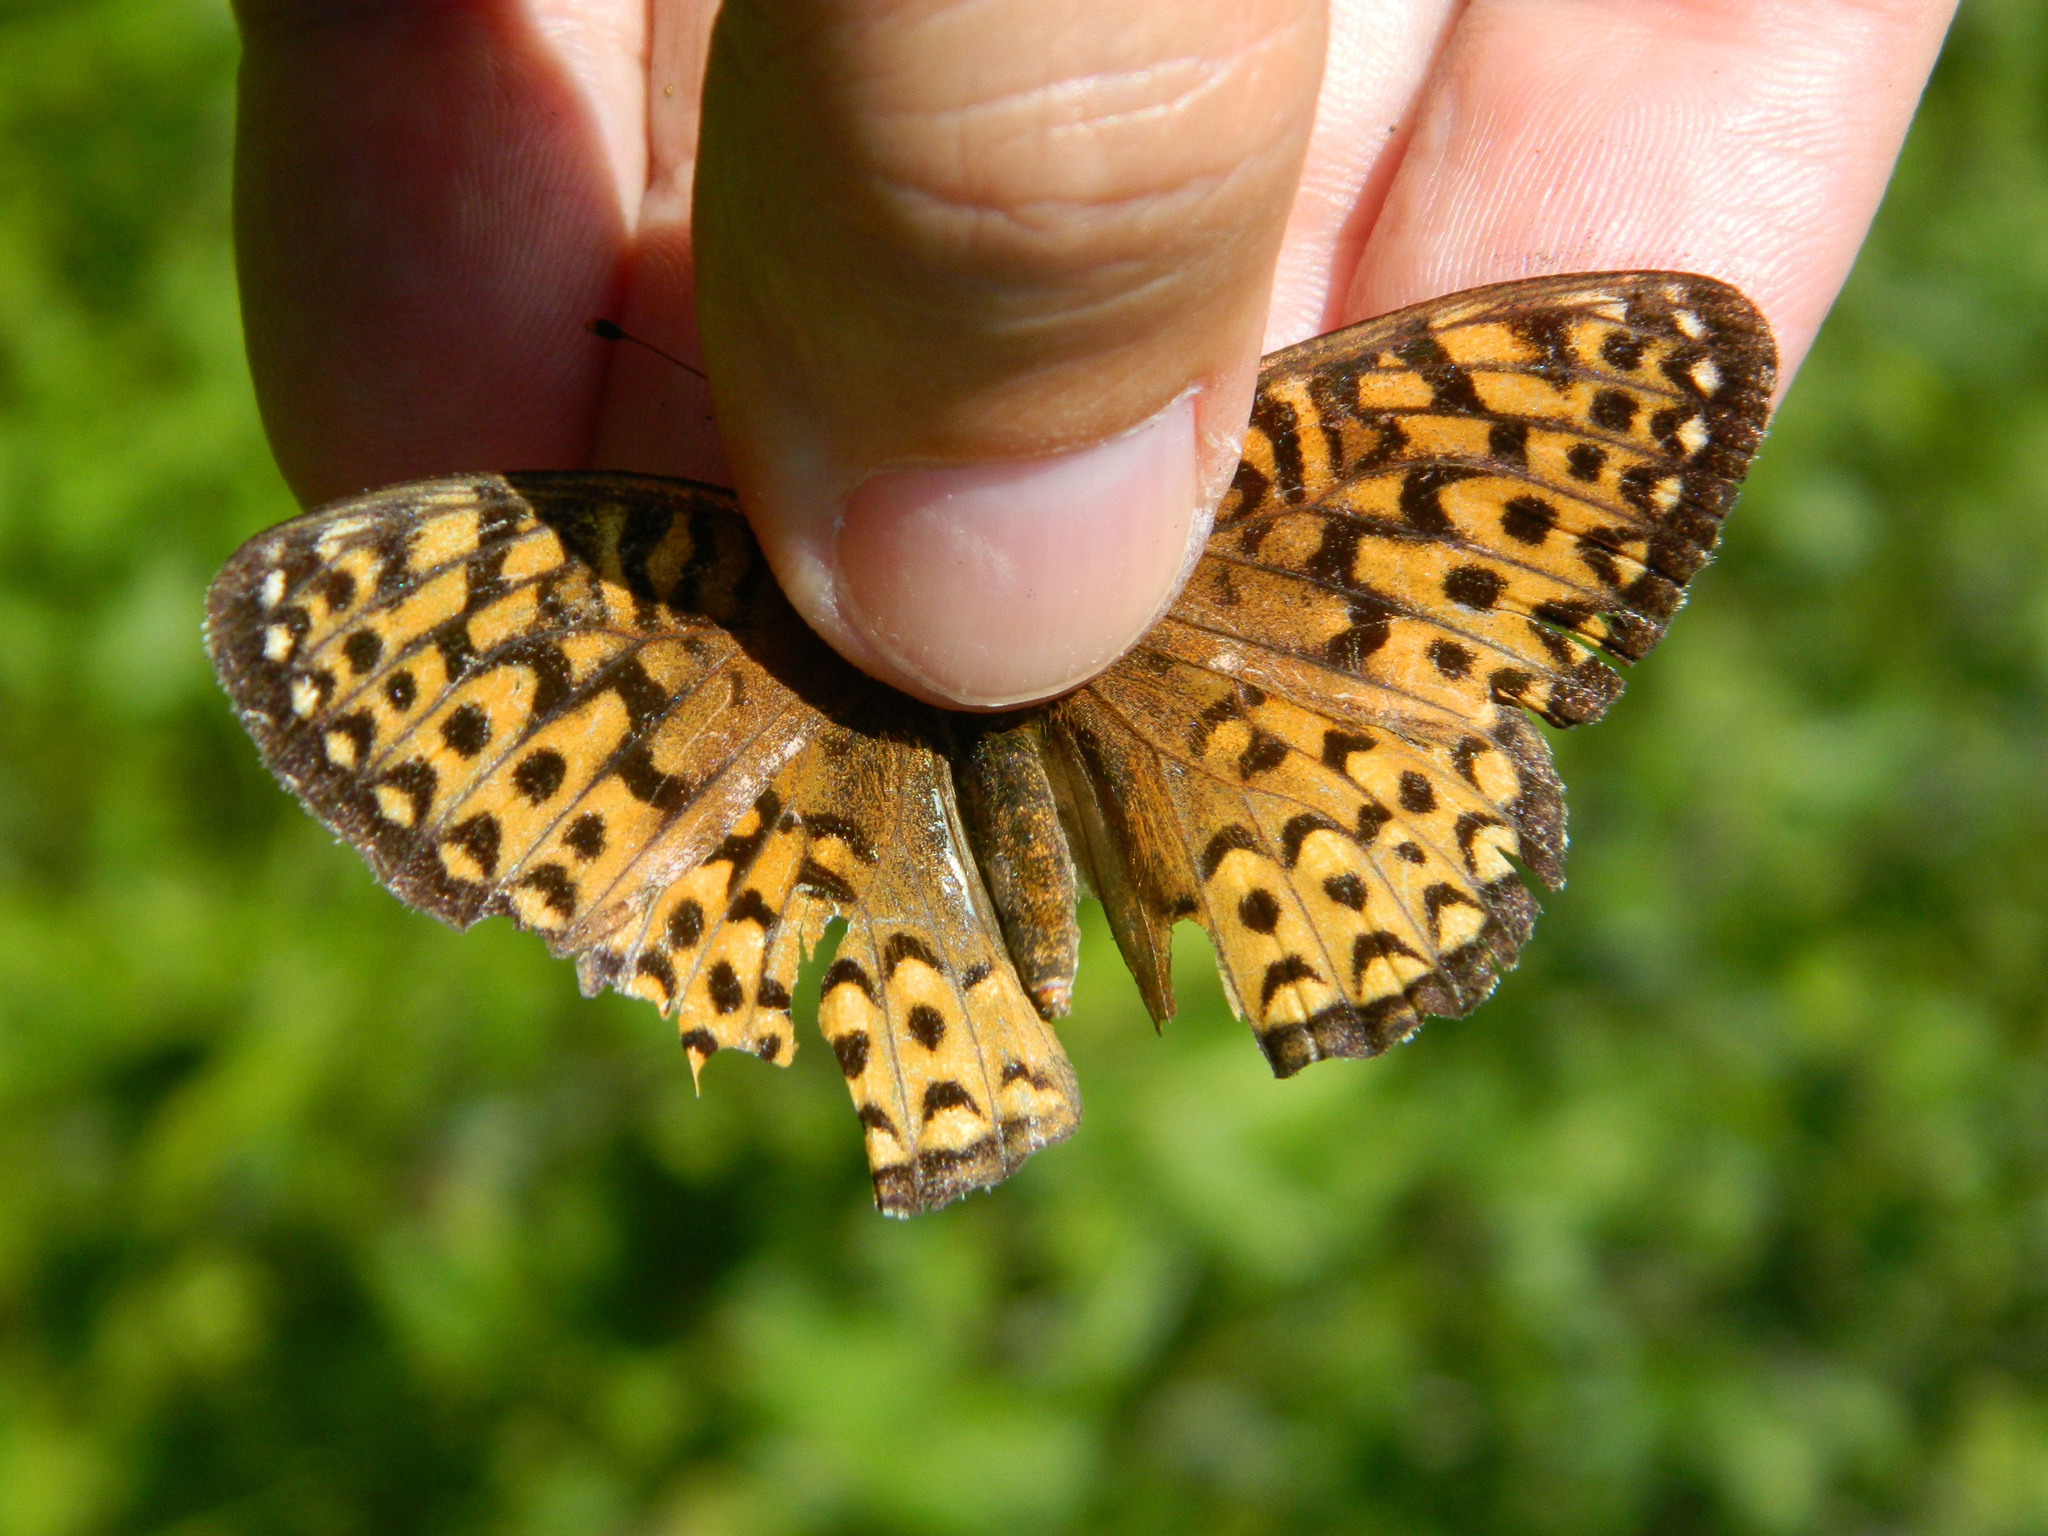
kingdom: Animalia
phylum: Arthropoda
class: Insecta
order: Lepidoptera
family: Nymphalidae
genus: Speyeria
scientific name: Speyeria atlantis
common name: Atlantis fritillary
